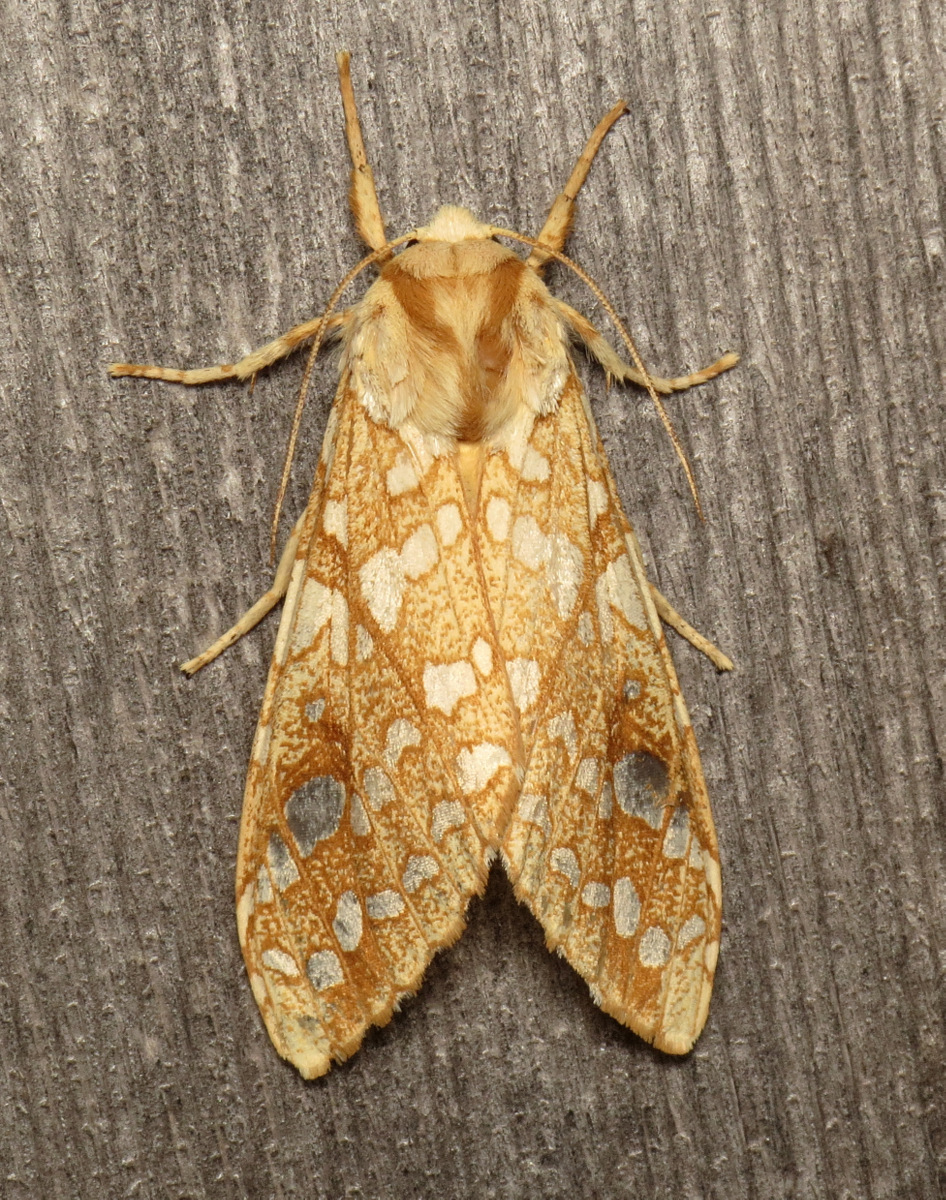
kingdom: Animalia
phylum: Arthropoda
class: Insecta
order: Lepidoptera
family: Erebidae
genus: Lophocampa
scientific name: Lophocampa caryae
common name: Hickory tussock moth
